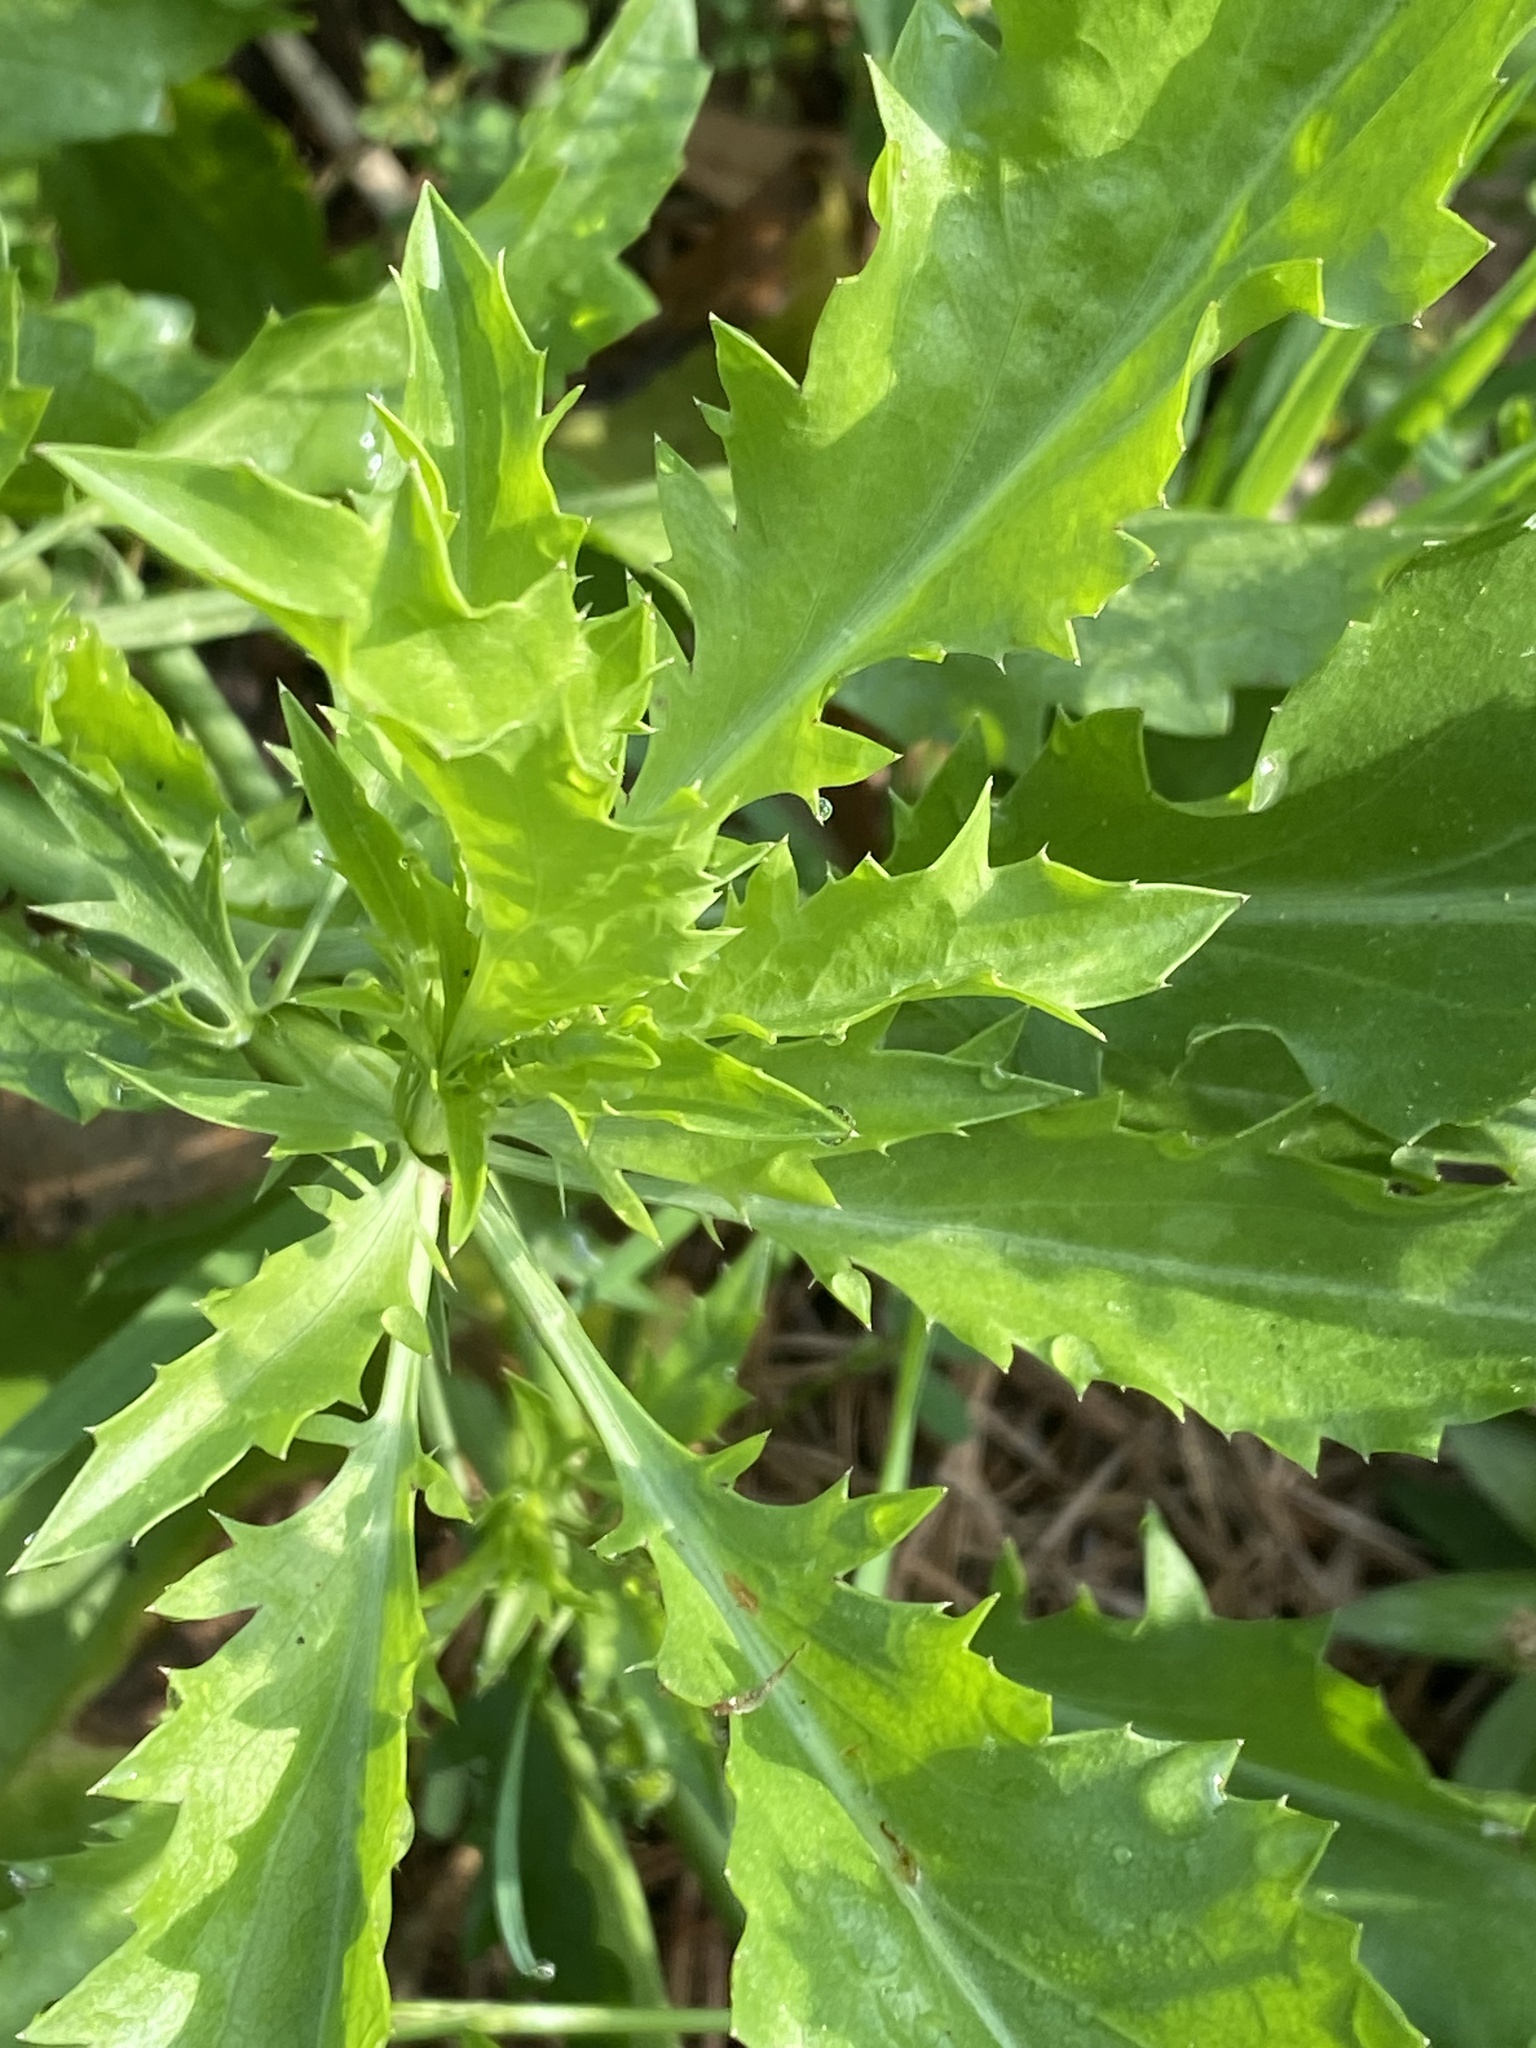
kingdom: Plantae
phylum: Tracheophyta
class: Magnoliopsida
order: Asterales
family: Asteraceae
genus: Erechtites
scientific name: Erechtites hieraciifolius
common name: American burnweed
